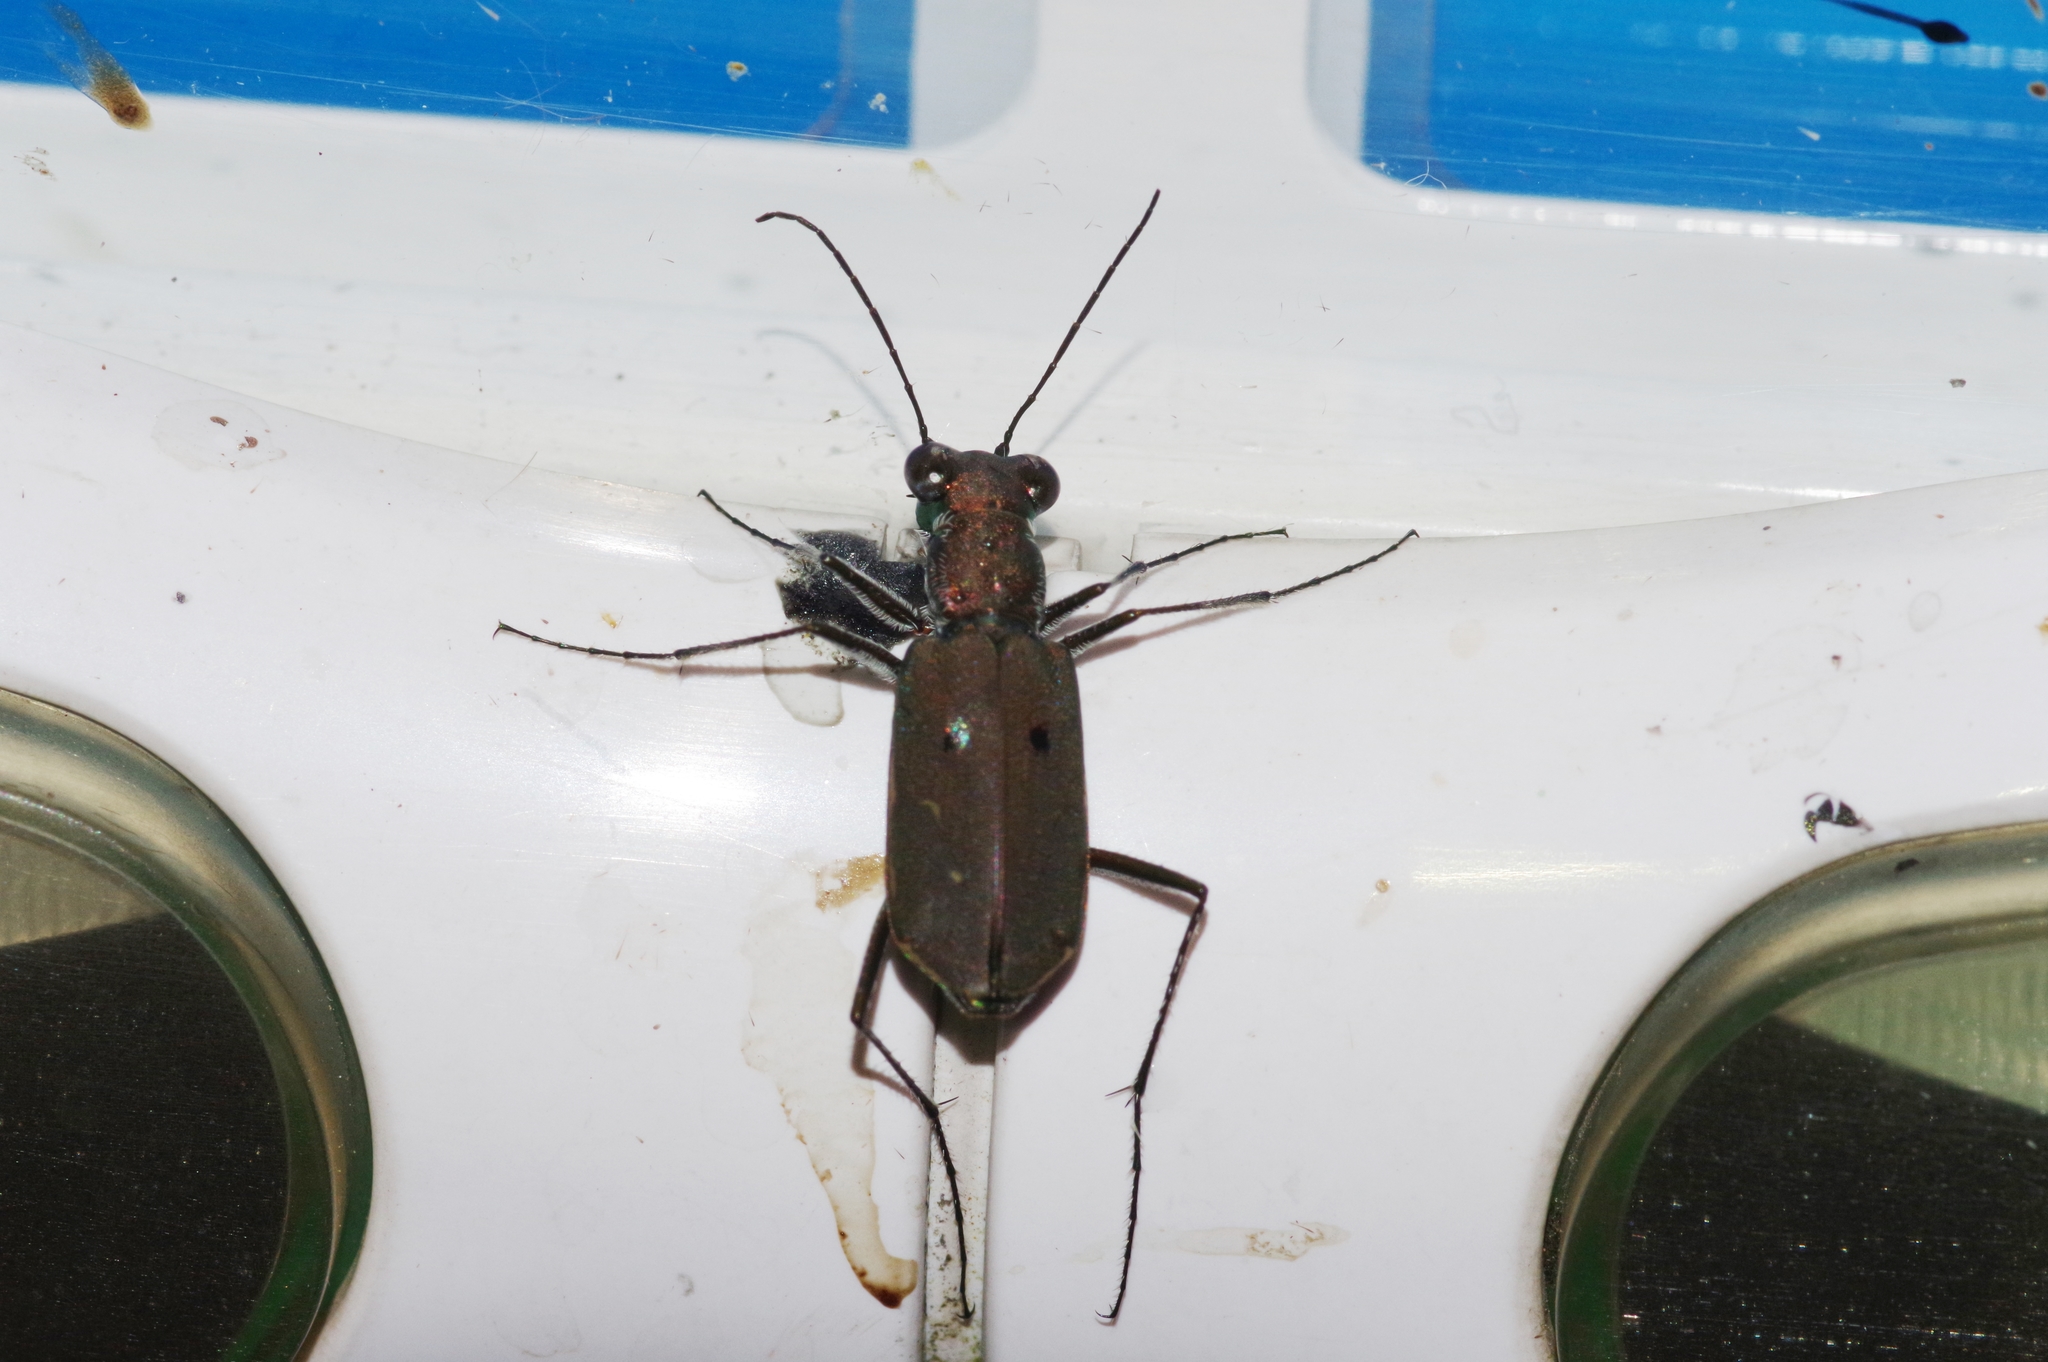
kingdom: Animalia
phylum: Arthropoda
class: Insecta
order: Coleoptera
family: Carabidae
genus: Myriochila
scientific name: Myriochila specularis
